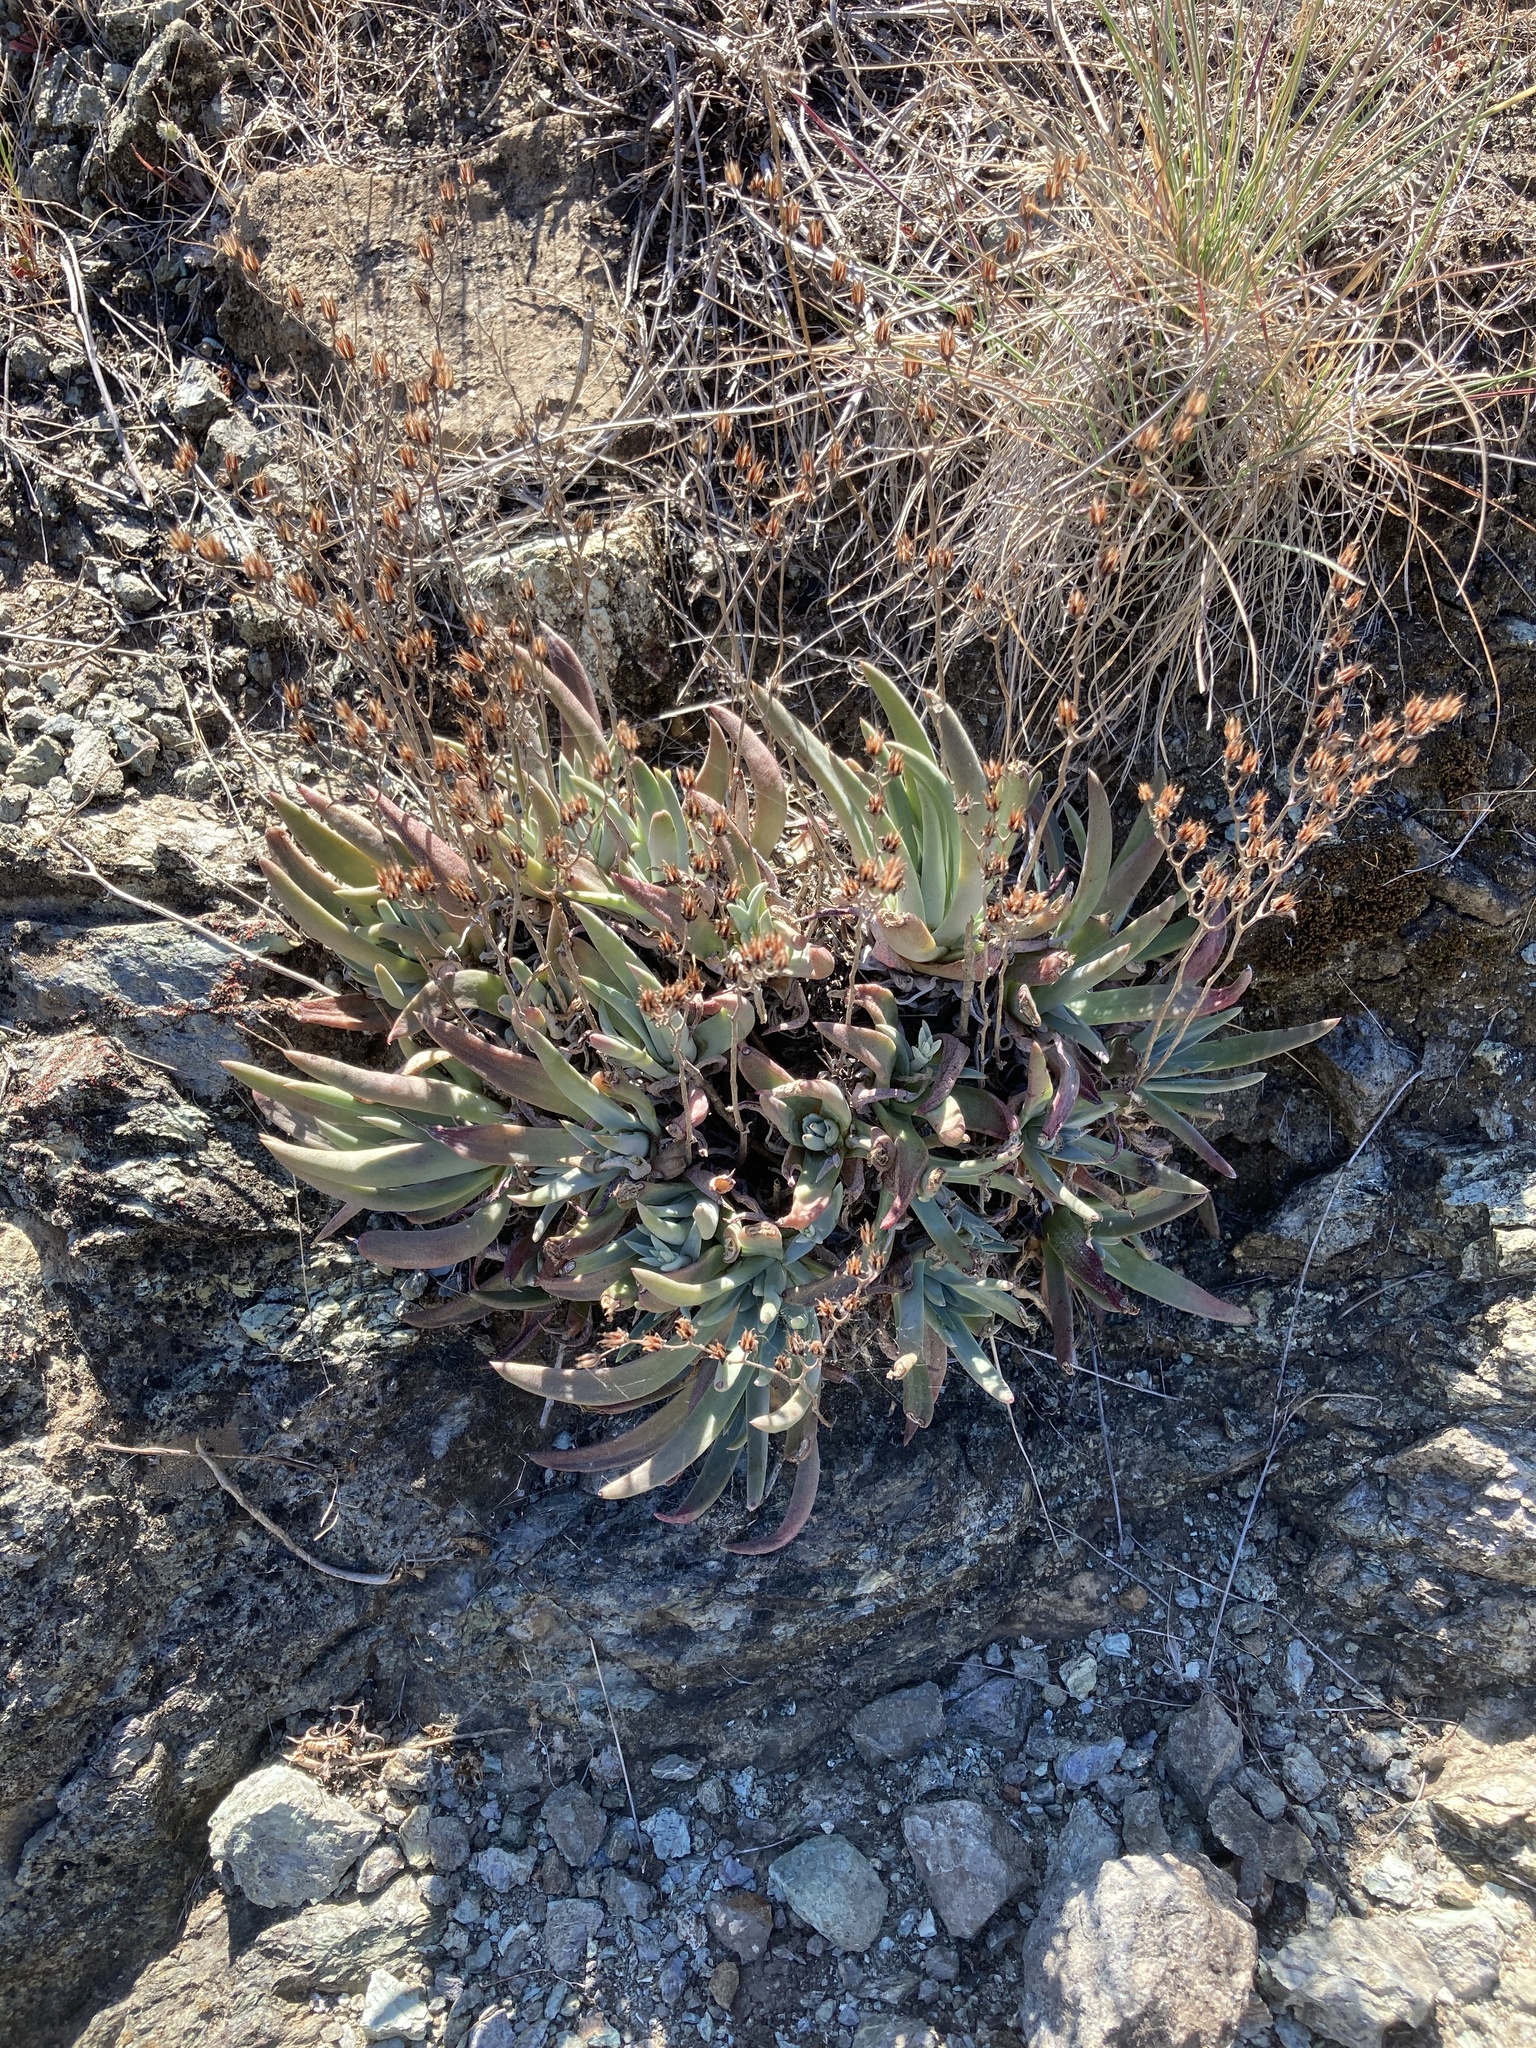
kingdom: Plantae
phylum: Tracheophyta
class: Magnoliopsida
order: Saxifragales
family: Crassulaceae
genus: Dudleya
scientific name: Dudleya abramsii
